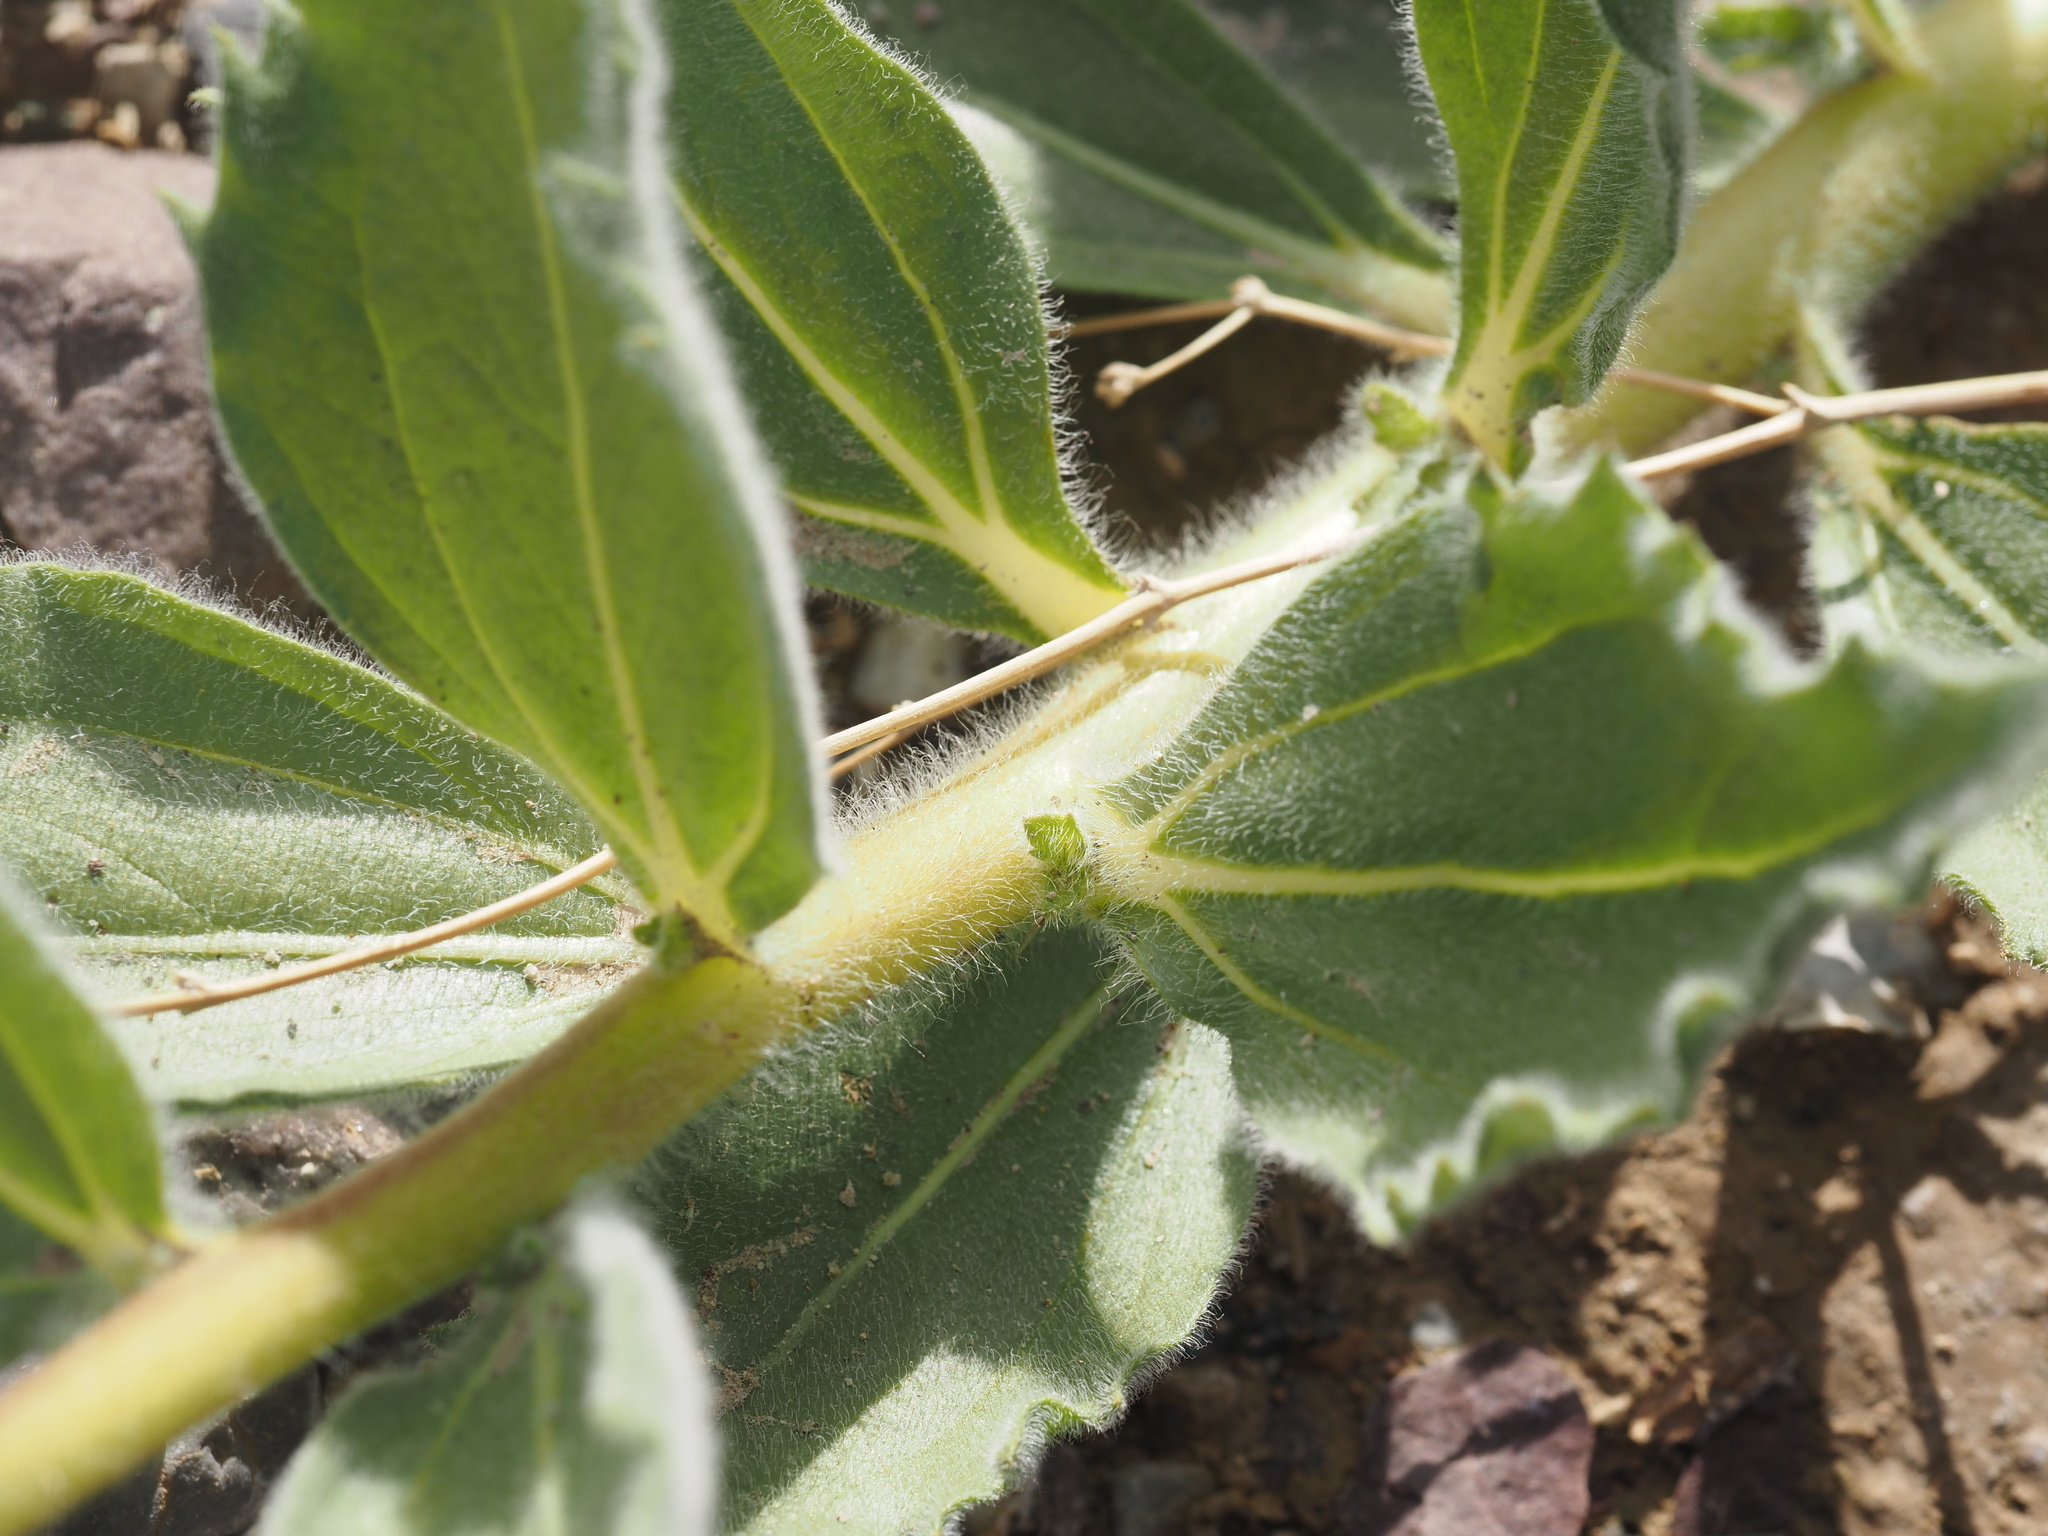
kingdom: Plantae
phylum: Tracheophyta
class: Magnoliopsida
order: Asterales
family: Asteraceae
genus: Geraea
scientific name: Geraea canescens
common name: Desert-gold
